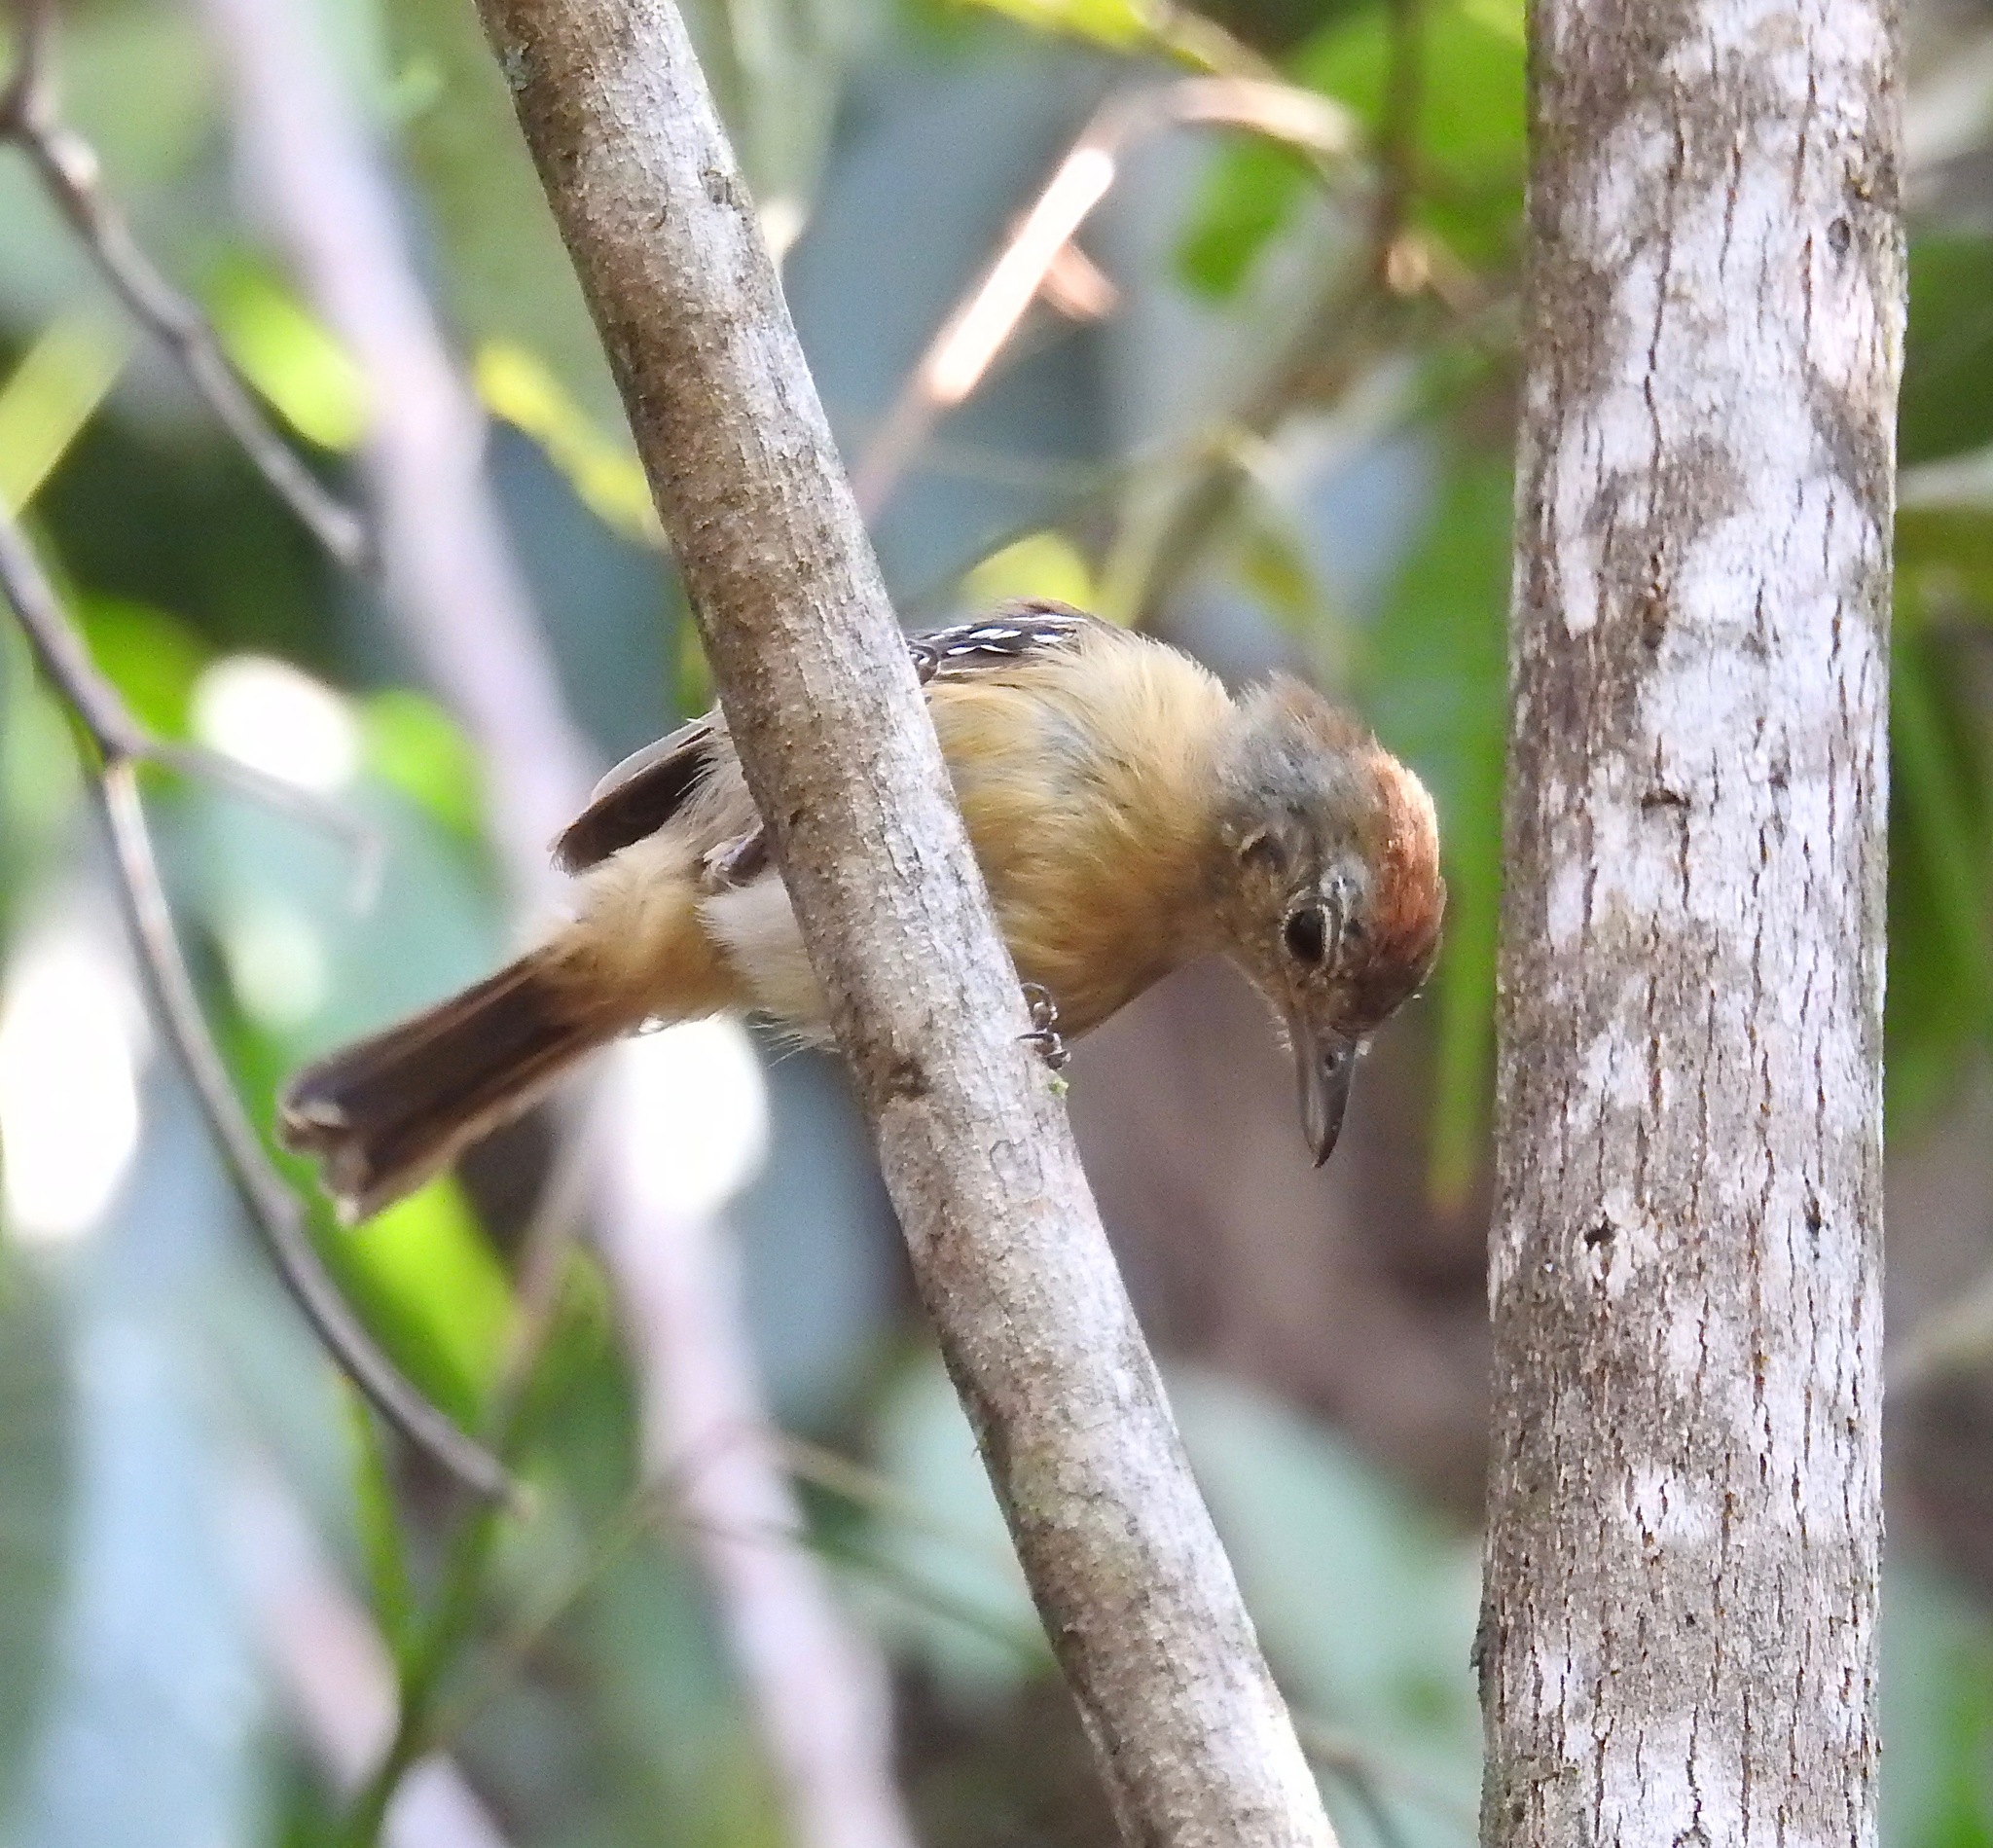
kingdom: Animalia
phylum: Chordata
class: Aves
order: Passeriformes
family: Thamnophilidae
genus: Thamnophilus
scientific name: Thamnophilus pelzelni
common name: Planalto slaty-antshrike
